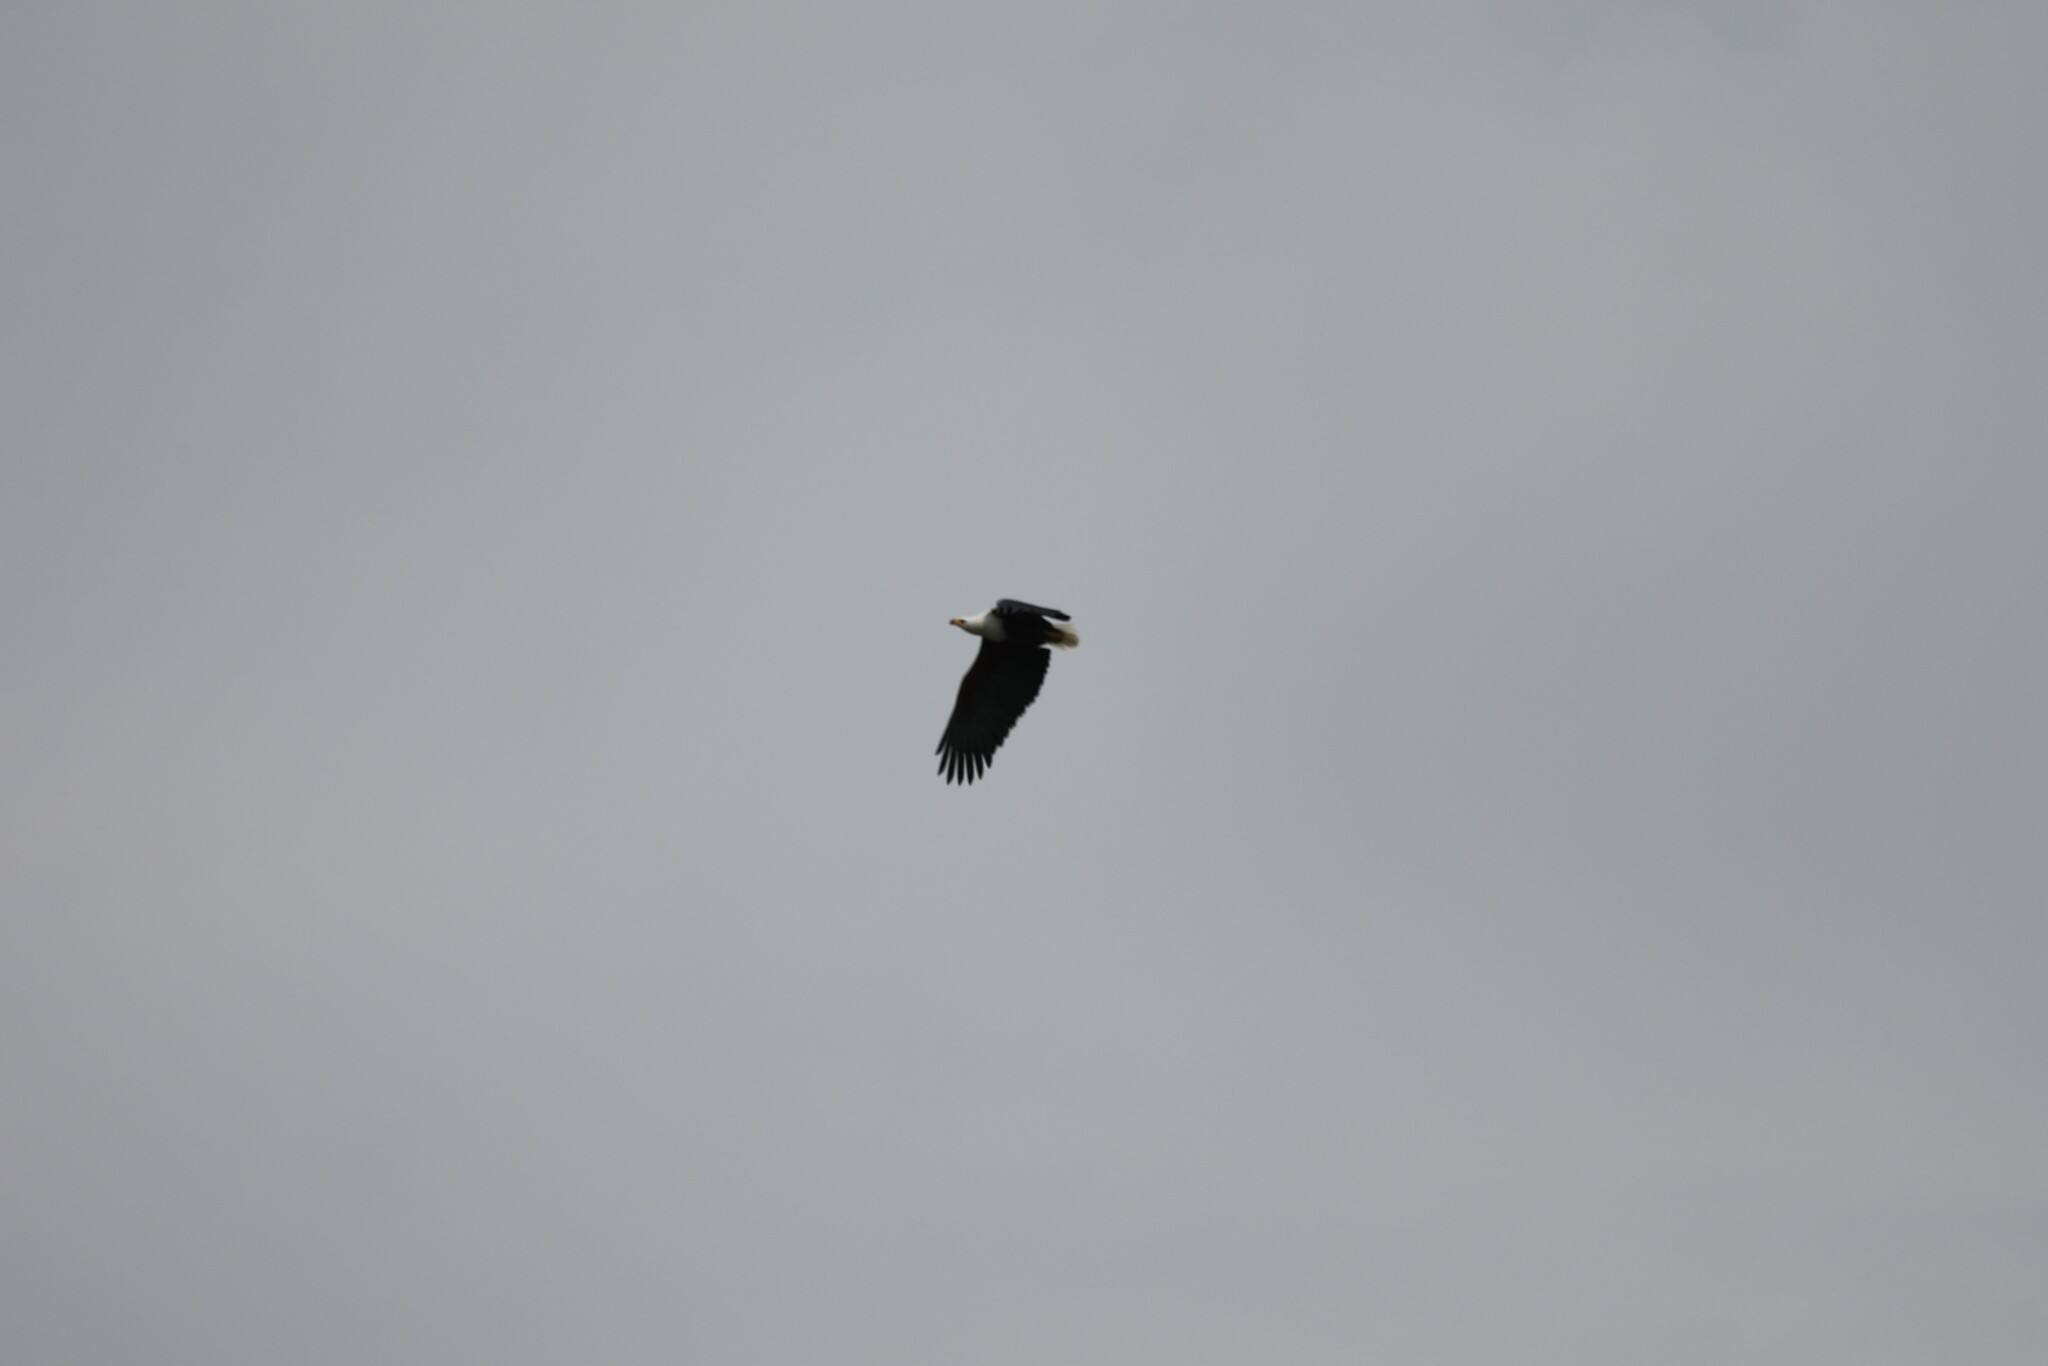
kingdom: Animalia
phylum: Chordata
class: Aves
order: Accipitriformes
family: Accipitridae
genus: Haliaeetus
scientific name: Haliaeetus vocifer
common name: African fish eagle
